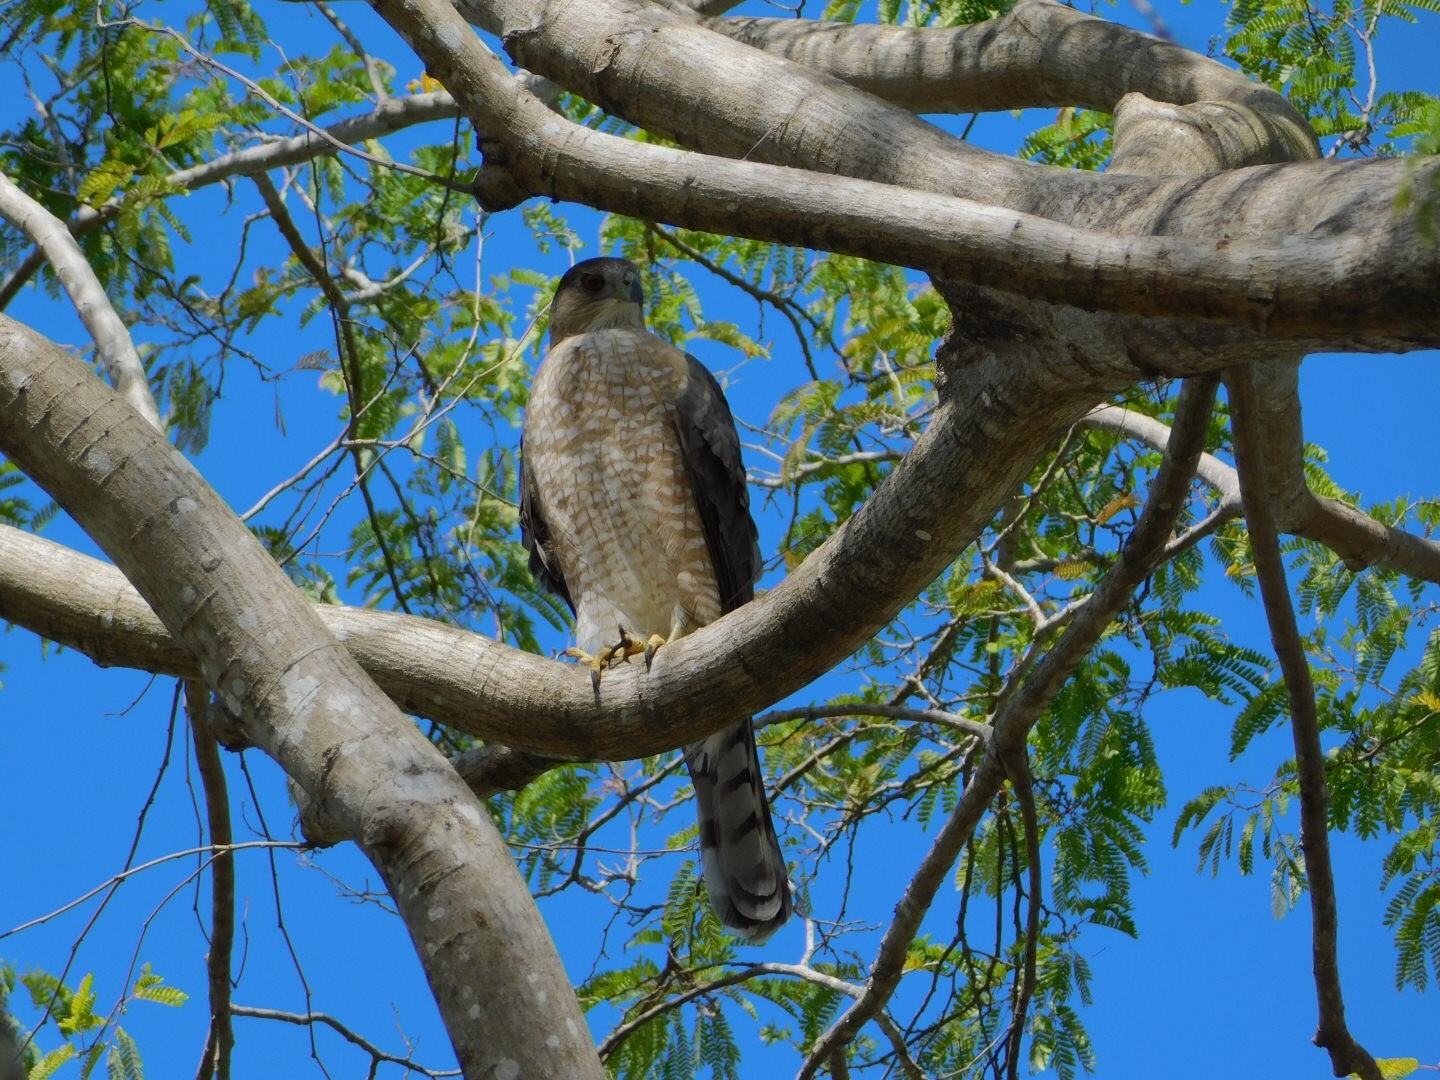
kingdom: Animalia
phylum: Chordata
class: Aves
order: Accipitriformes
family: Accipitridae
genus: Accipiter
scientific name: Accipiter cooperii
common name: Cooper's hawk
